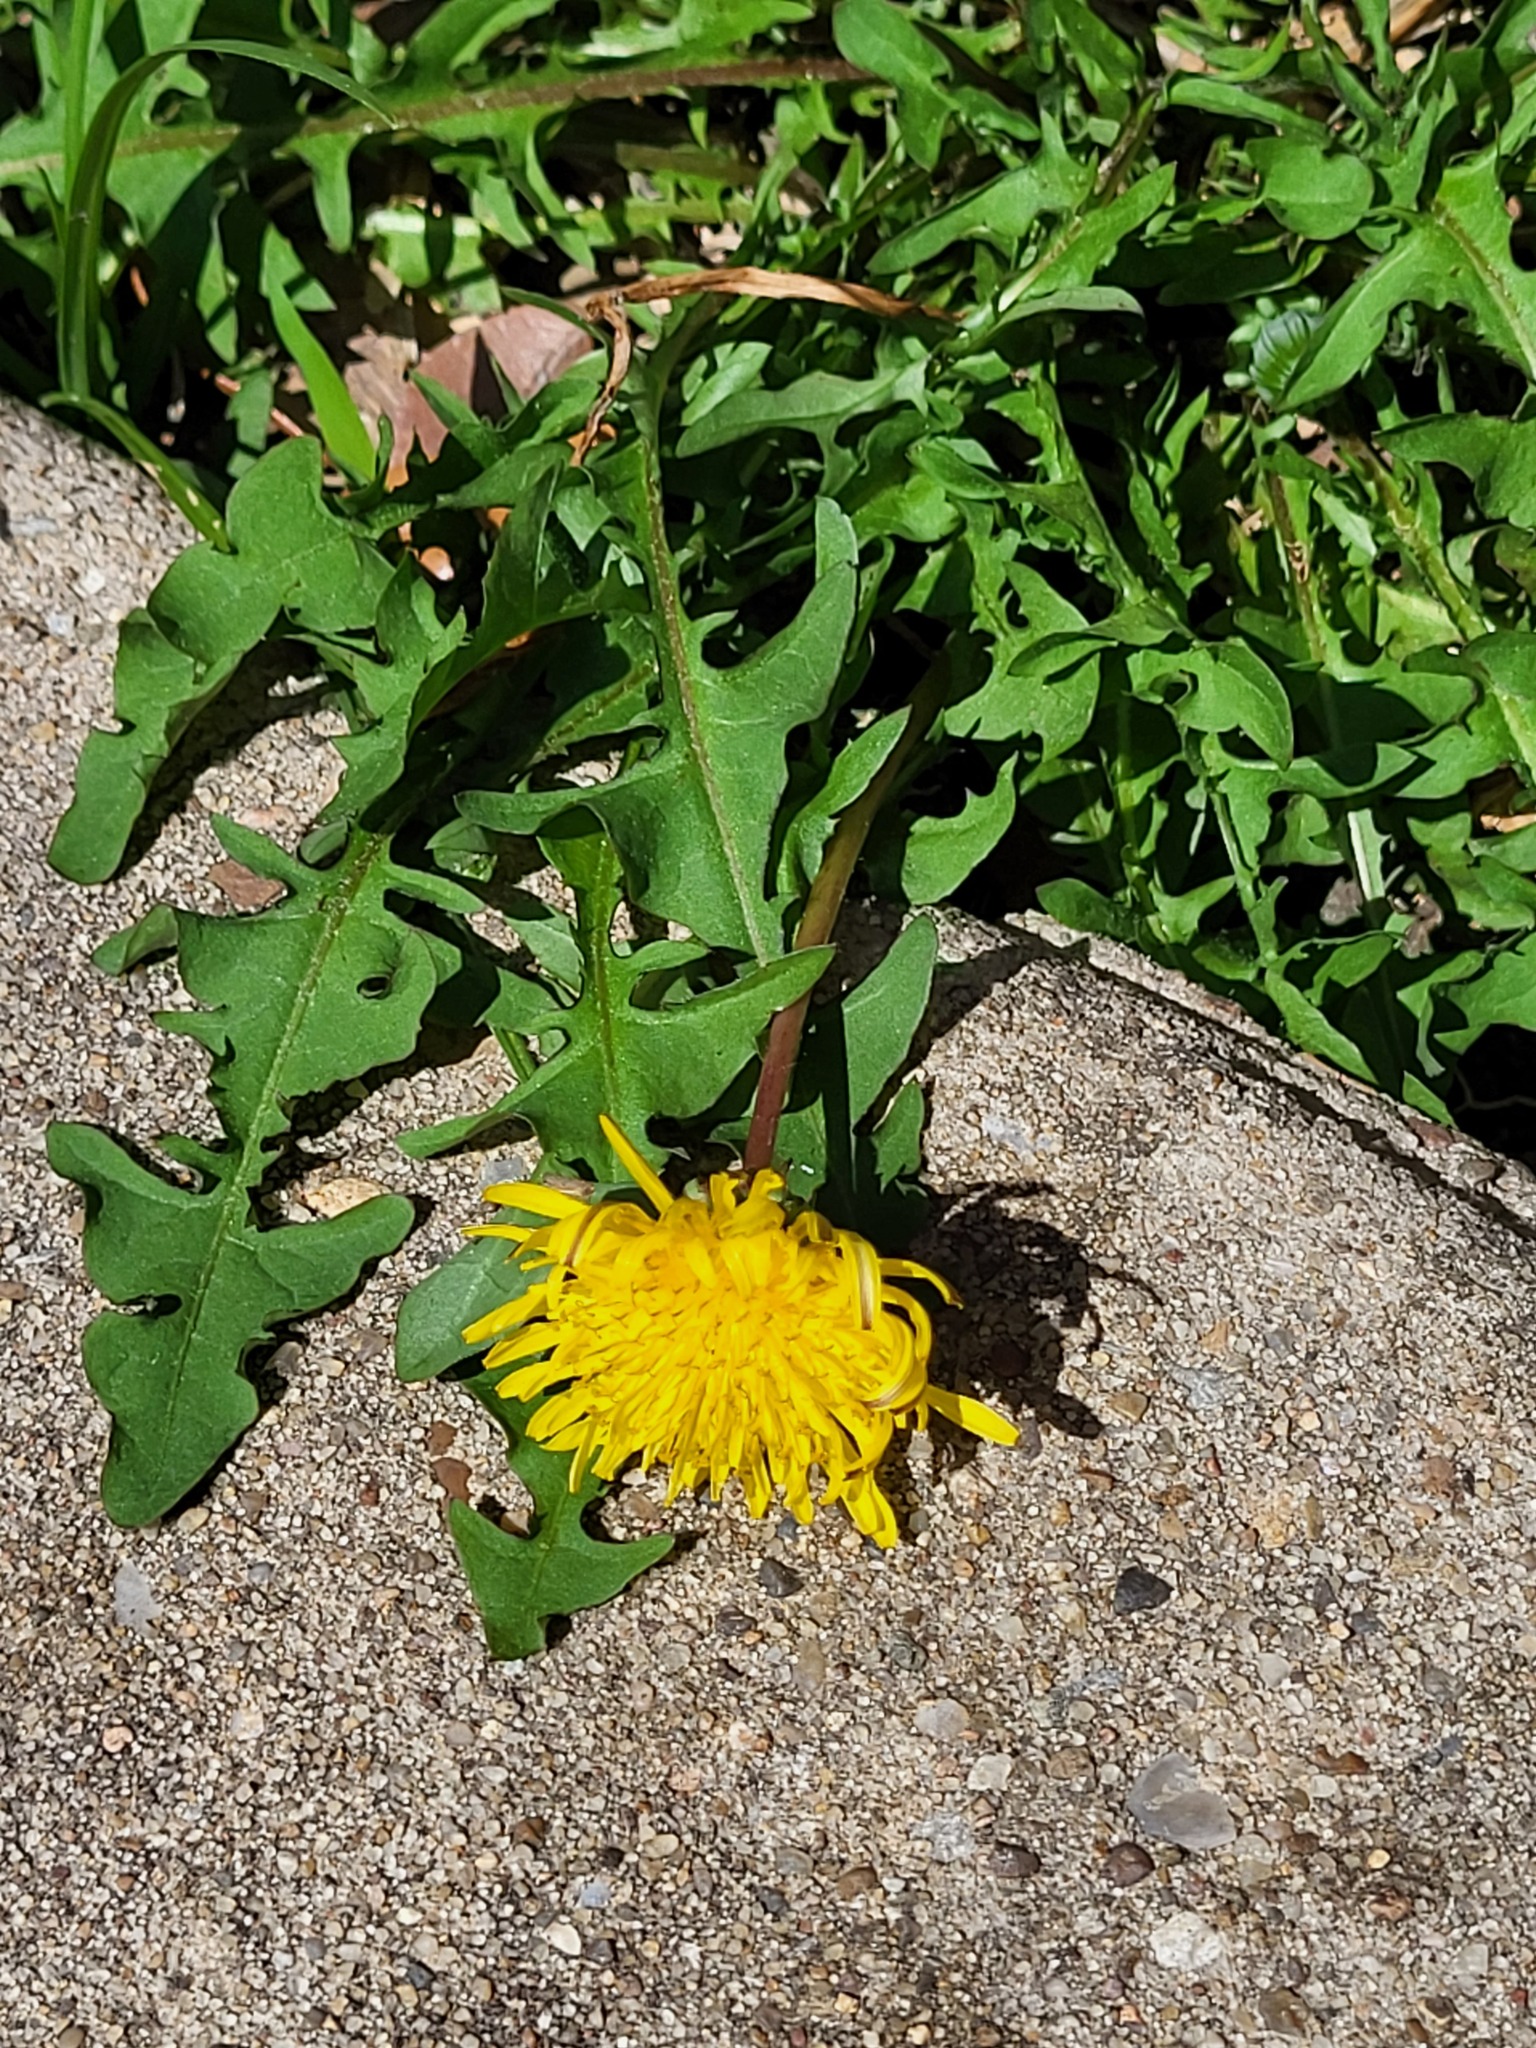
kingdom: Plantae
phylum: Tracheophyta
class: Magnoliopsida
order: Asterales
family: Asteraceae
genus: Taraxacum
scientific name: Taraxacum officinale
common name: Common dandelion
